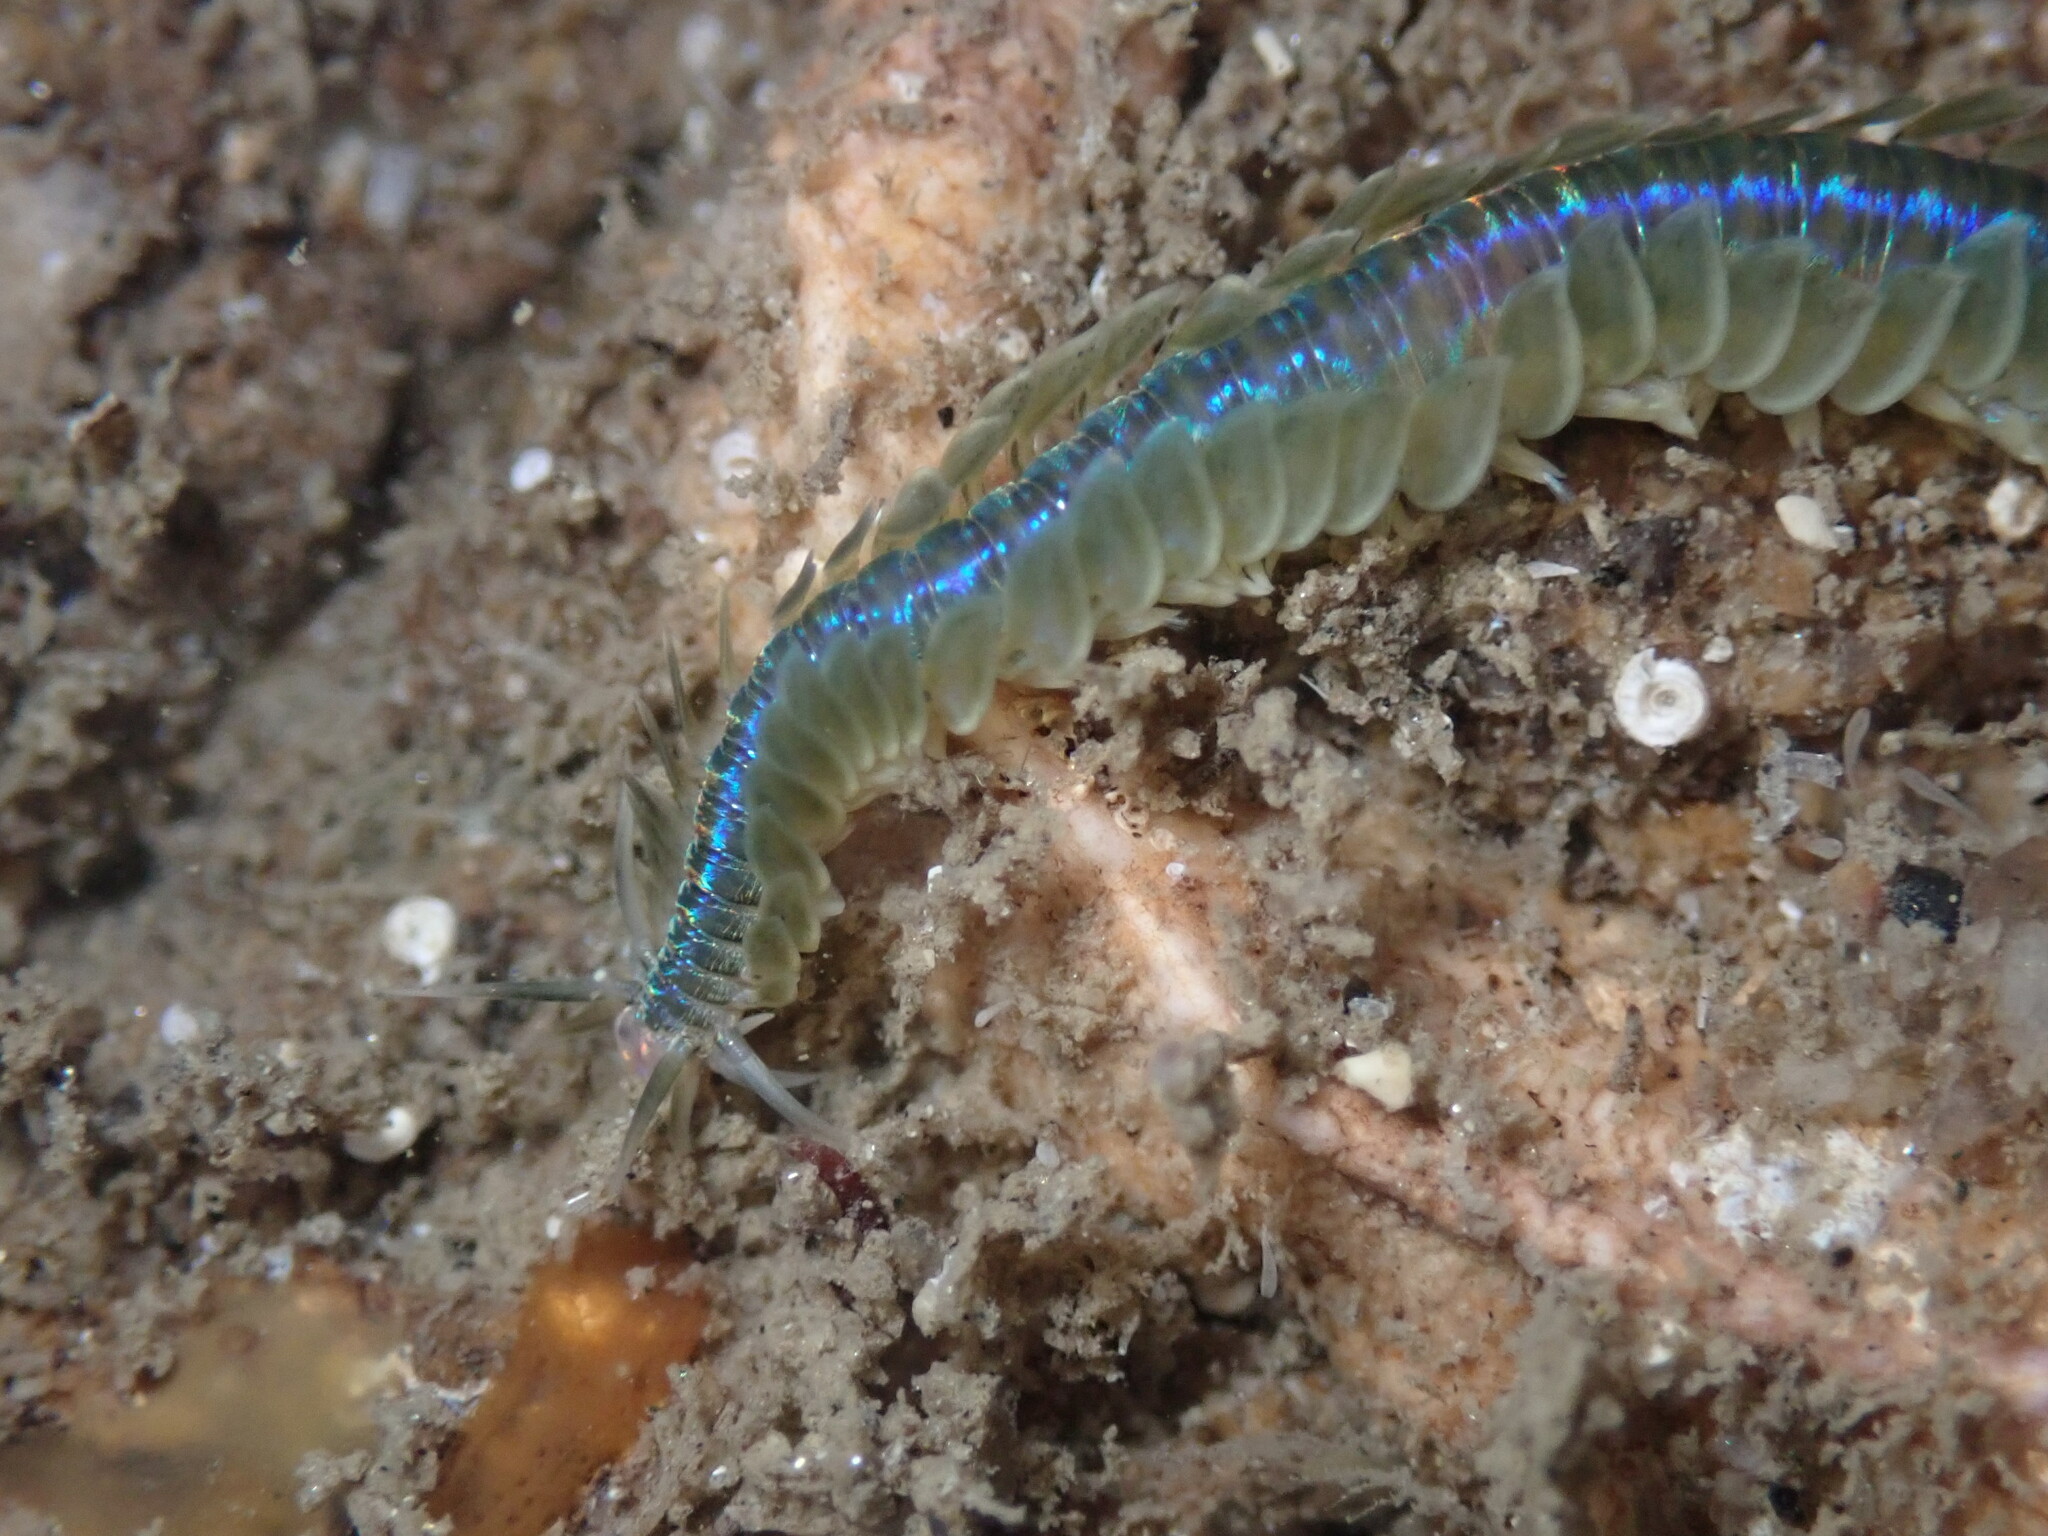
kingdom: Animalia
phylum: Annelida
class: Polychaeta
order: Phyllodocida
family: Phyllodocidae
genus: Phyllodoce
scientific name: Phyllodoce medipapillata
